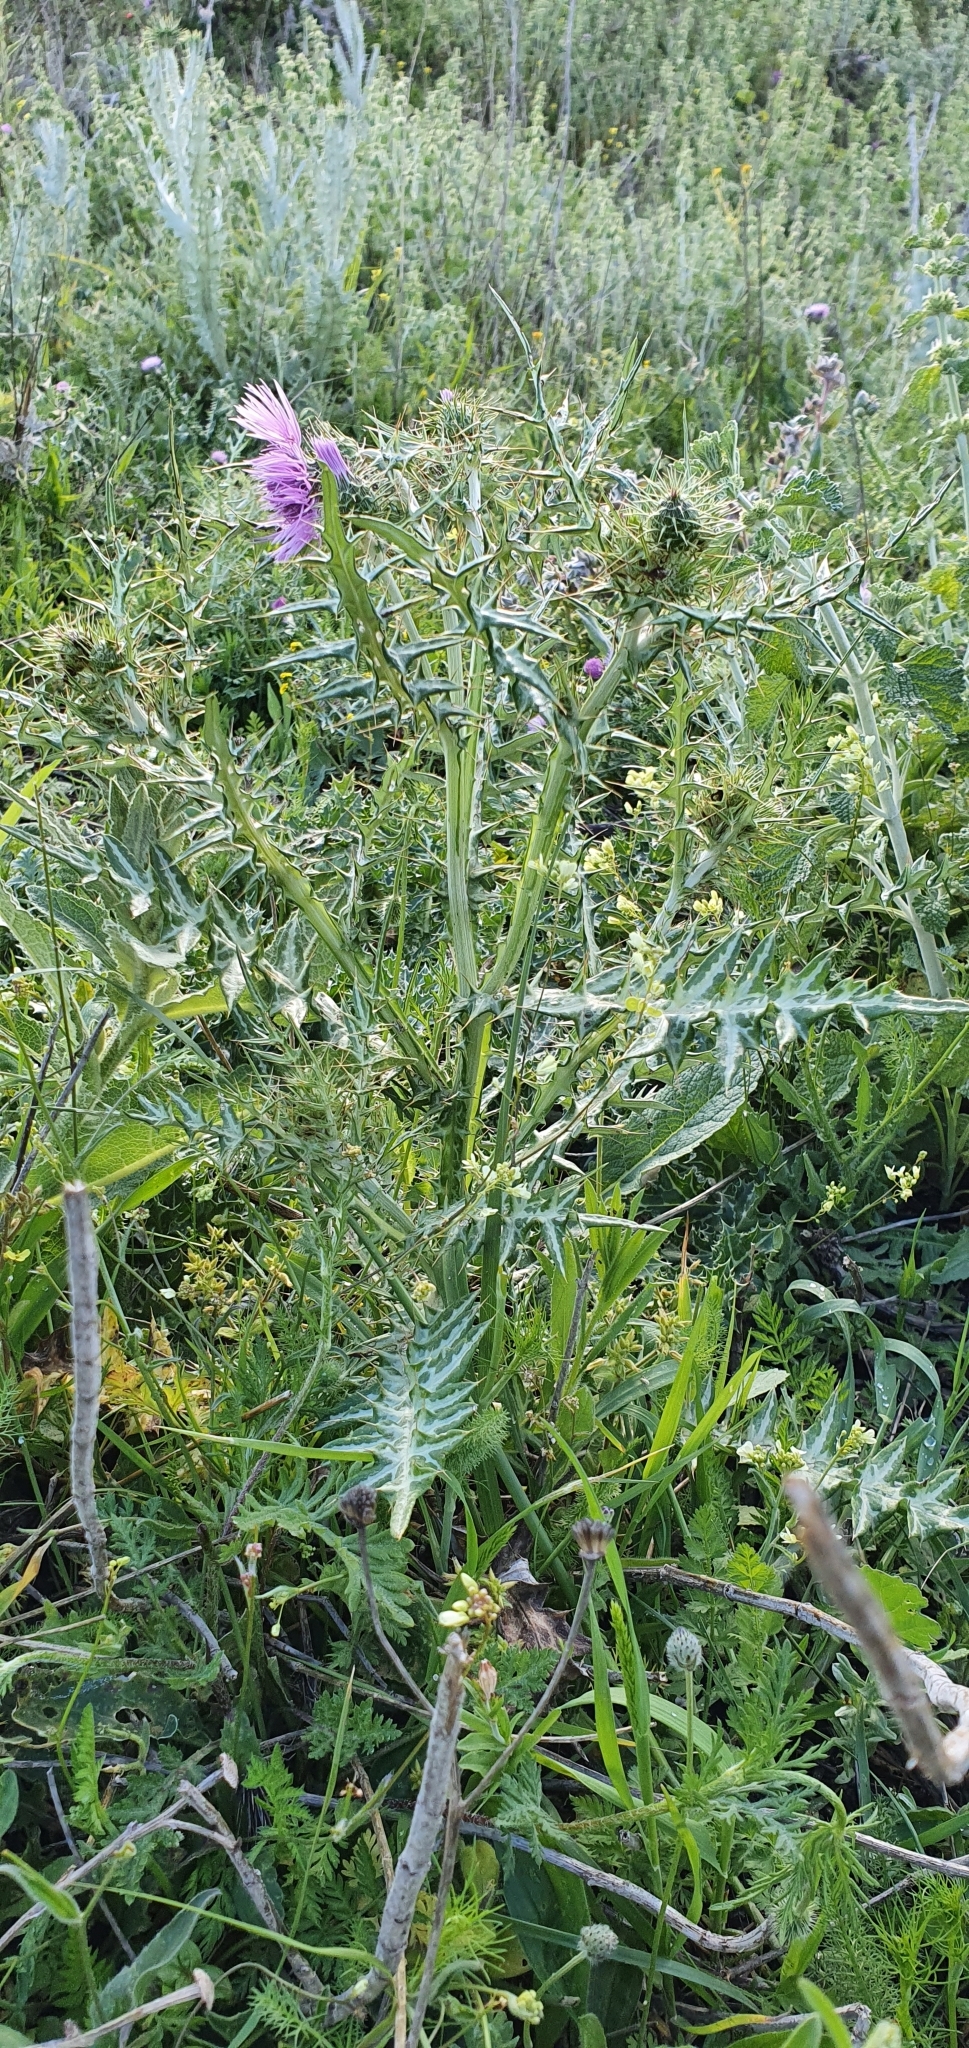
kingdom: Plantae
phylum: Tracheophyta
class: Magnoliopsida
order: Asterales
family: Asteraceae
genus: Galactites
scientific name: Galactites tomentosa
